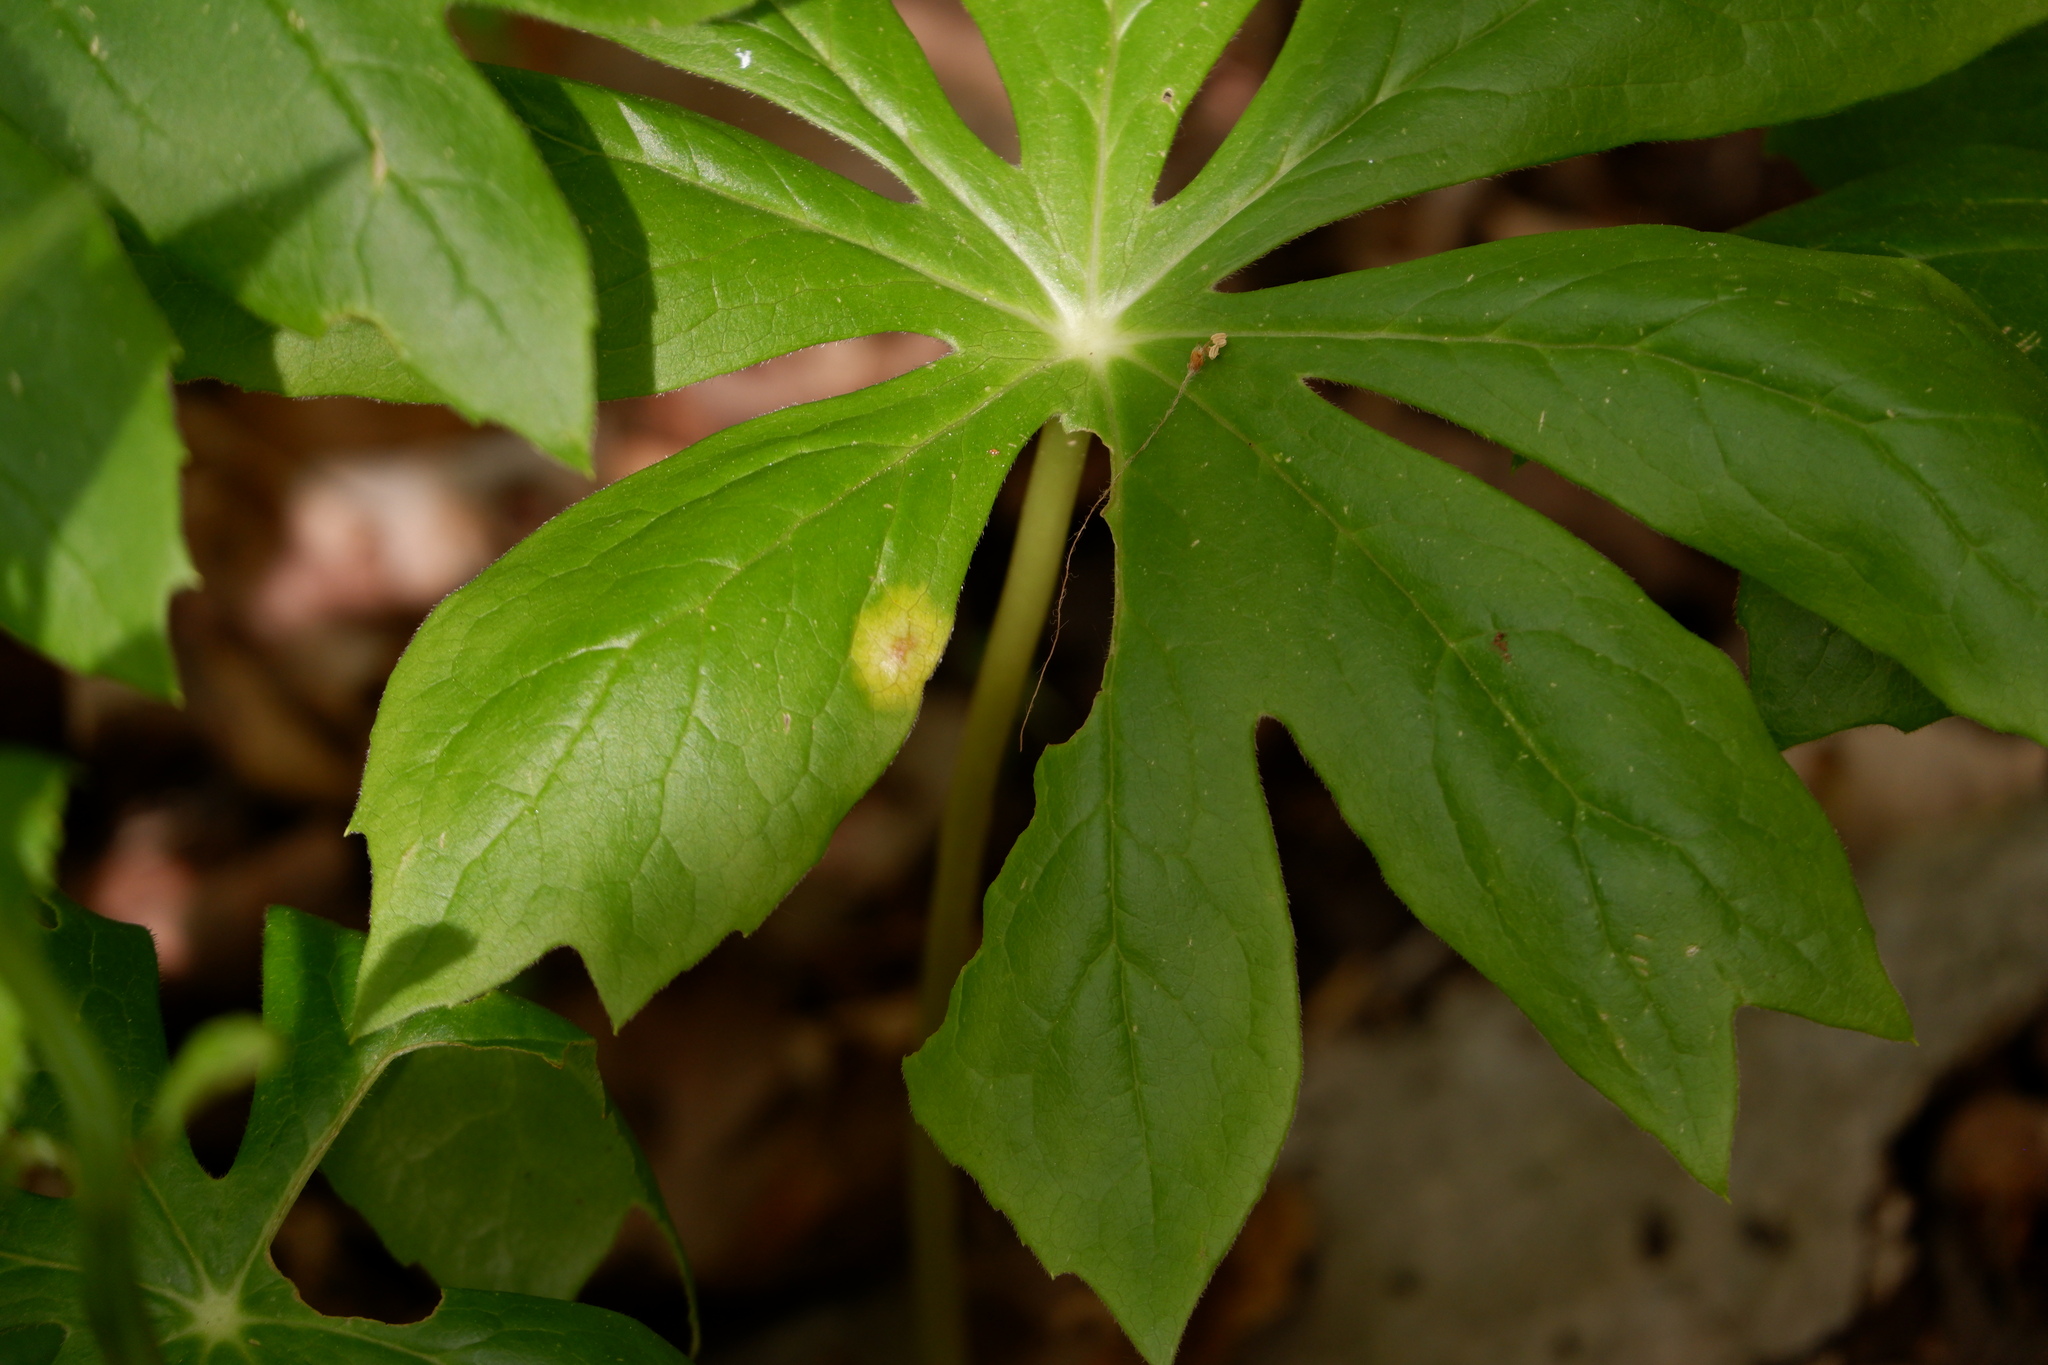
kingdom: Fungi
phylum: Basidiomycota
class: Pucciniomycetes
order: Pucciniales
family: Pucciniaceae
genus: Puccinia
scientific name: Puccinia podophylli
